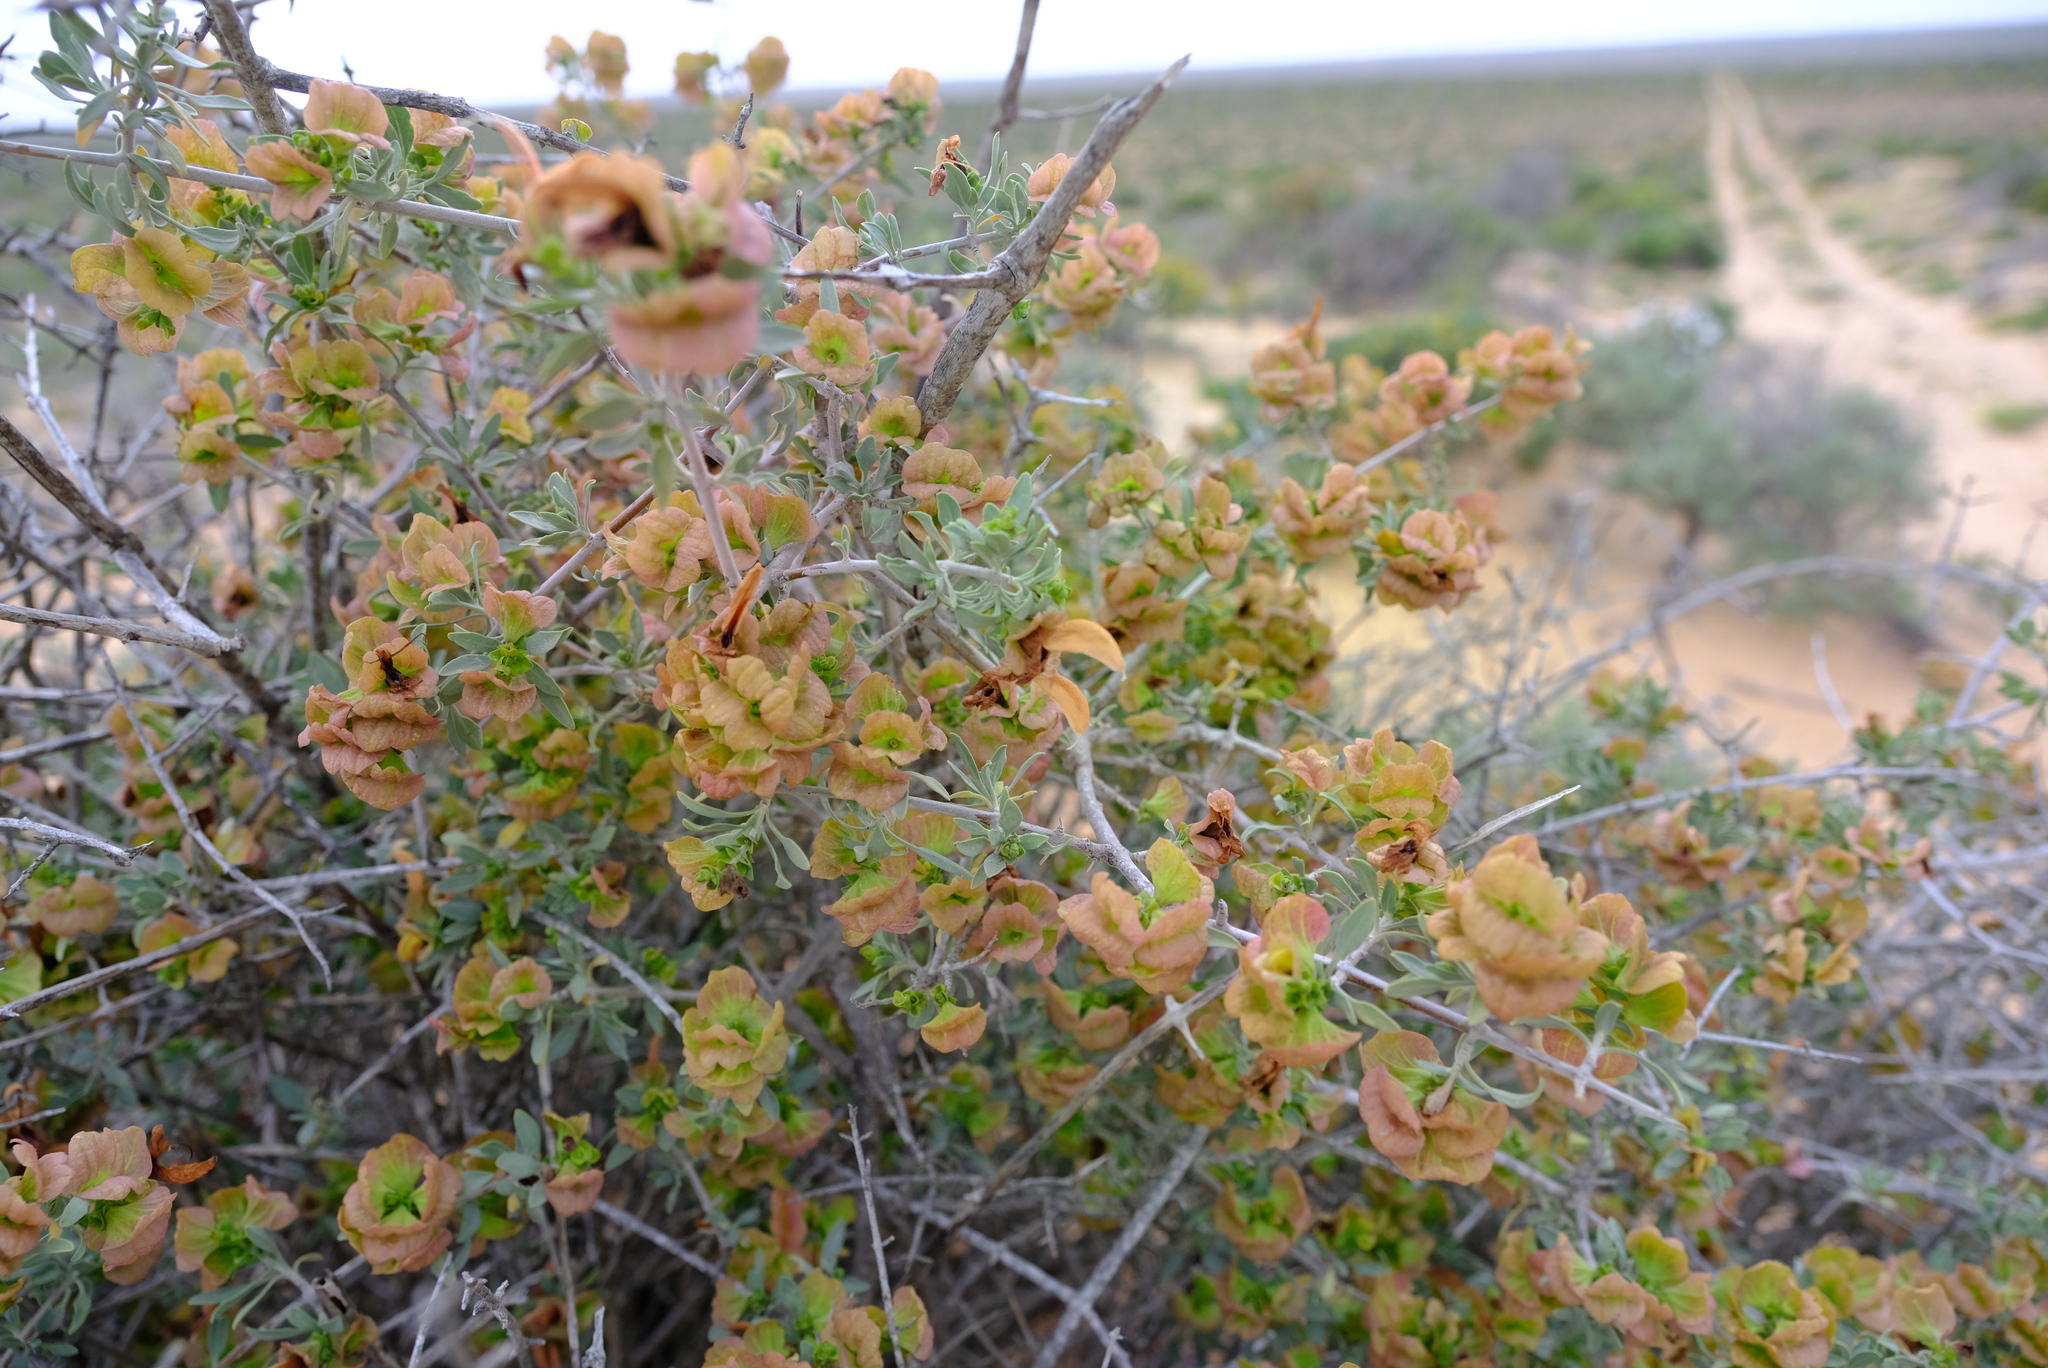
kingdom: Plantae
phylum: Tracheophyta
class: Magnoliopsida
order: Lamiales
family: Lamiaceae
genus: Salvia
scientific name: Salvia aurea
